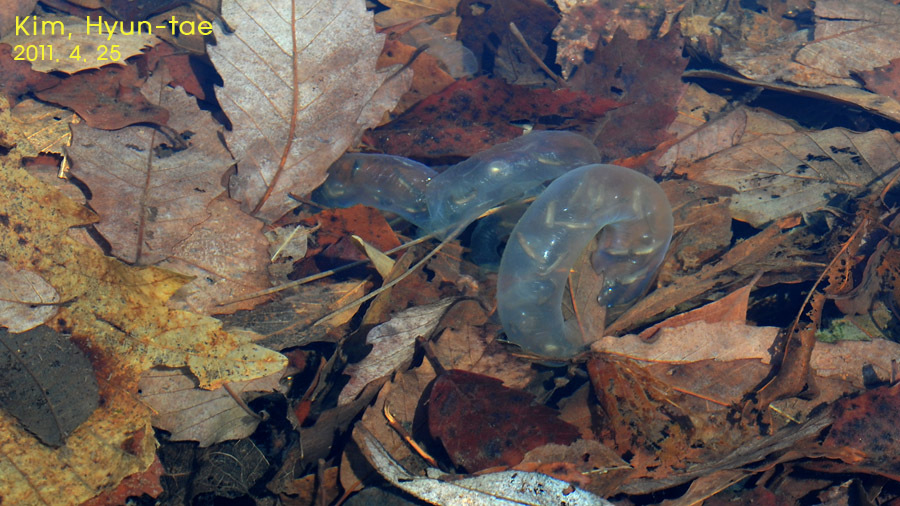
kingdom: Animalia
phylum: Chordata
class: Amphibia
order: Caudata
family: Hynobiidae
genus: Hynobius
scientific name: Hynobius leechii
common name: Gensan salamander
